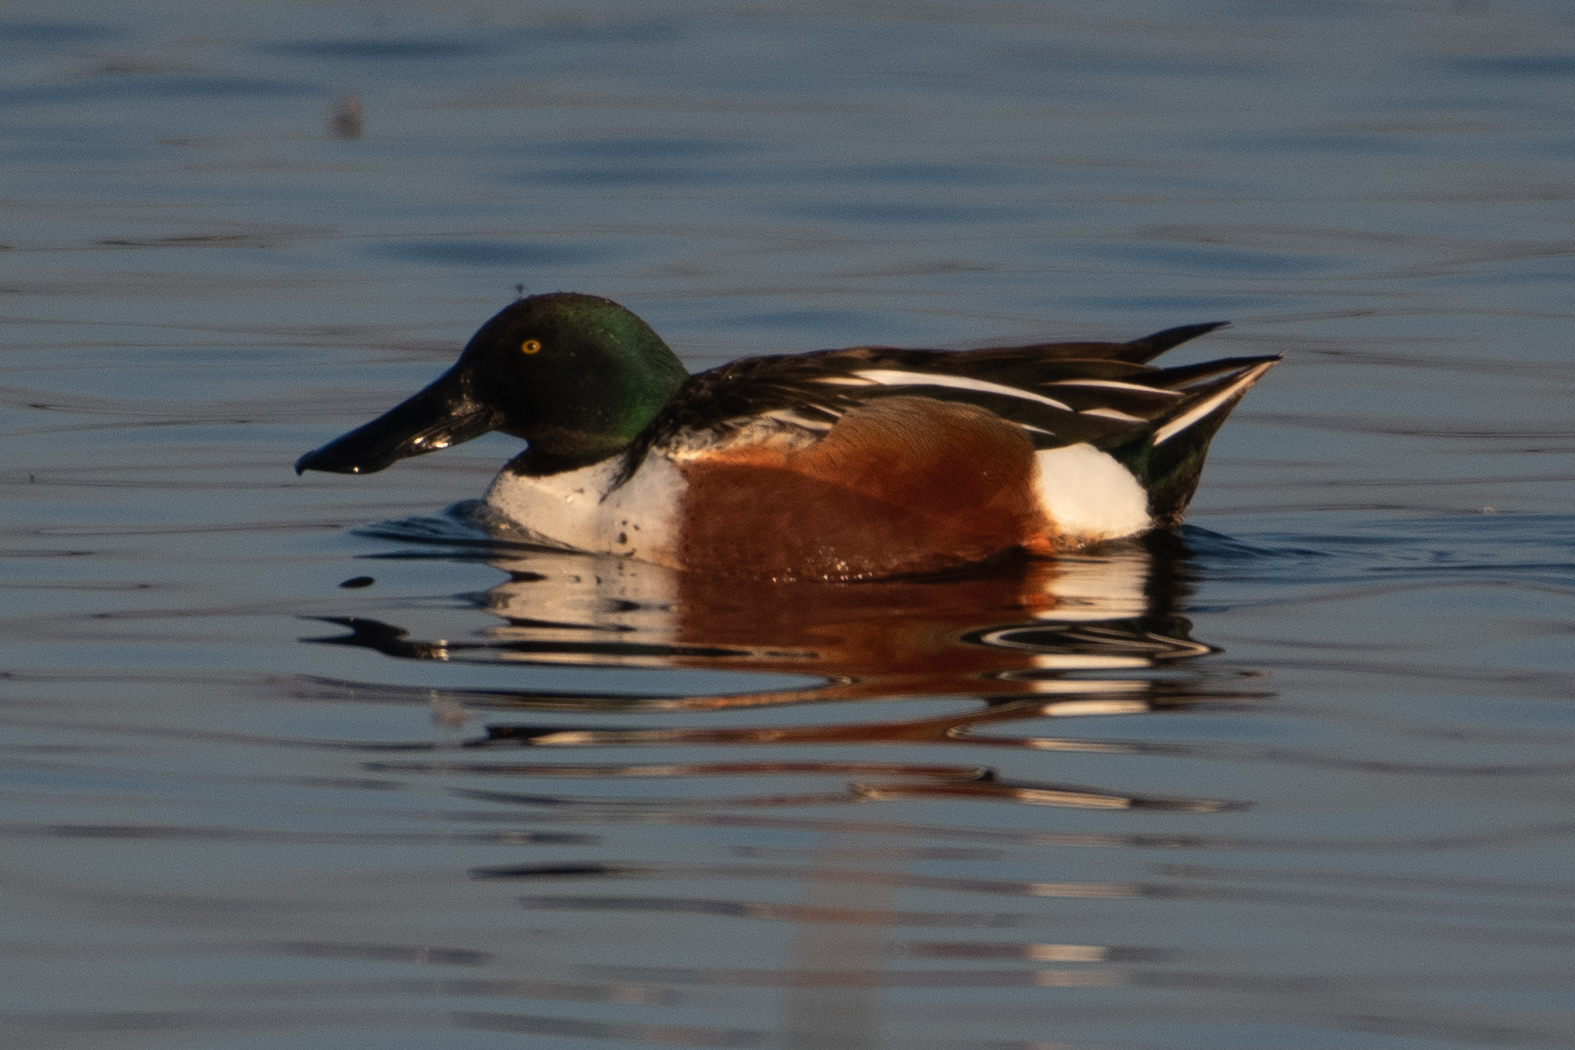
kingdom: Animalia
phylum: Chordata
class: Aves
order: Anseriformes
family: Anatidae
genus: Spatula
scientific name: Spatula clypeata
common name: Northern shoveler
